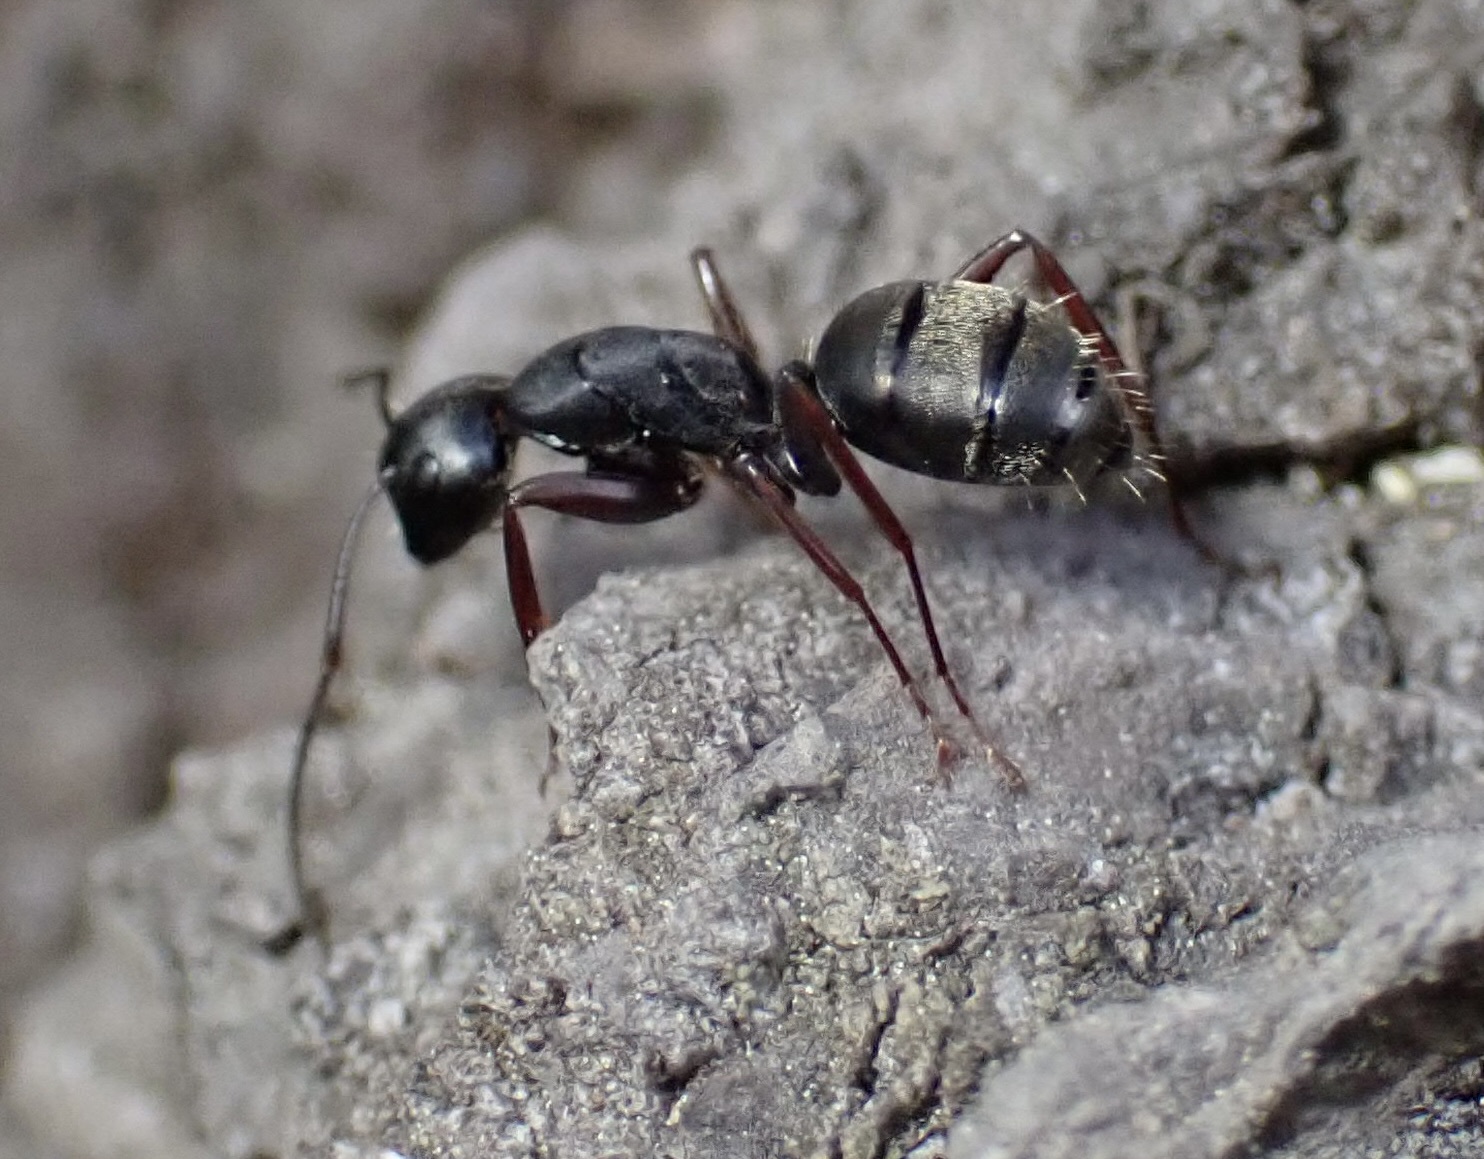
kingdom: Animalia
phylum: Arthropoda
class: Insecta
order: Hymenoptera
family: Formicidae
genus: Camponotus
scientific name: Camponotus modoc
